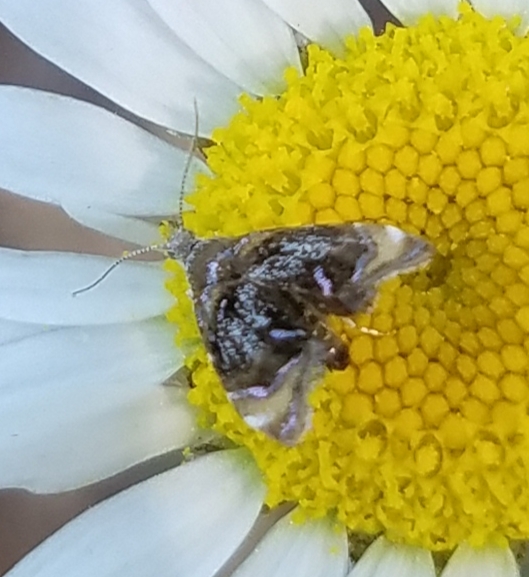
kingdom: Animalia
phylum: Arthropoda
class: Insecta
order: Lepidoptera
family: Choreutidae
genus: Prochoreutis
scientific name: Prochoreutis inflatella
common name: Skullcap skeletonizer moth
